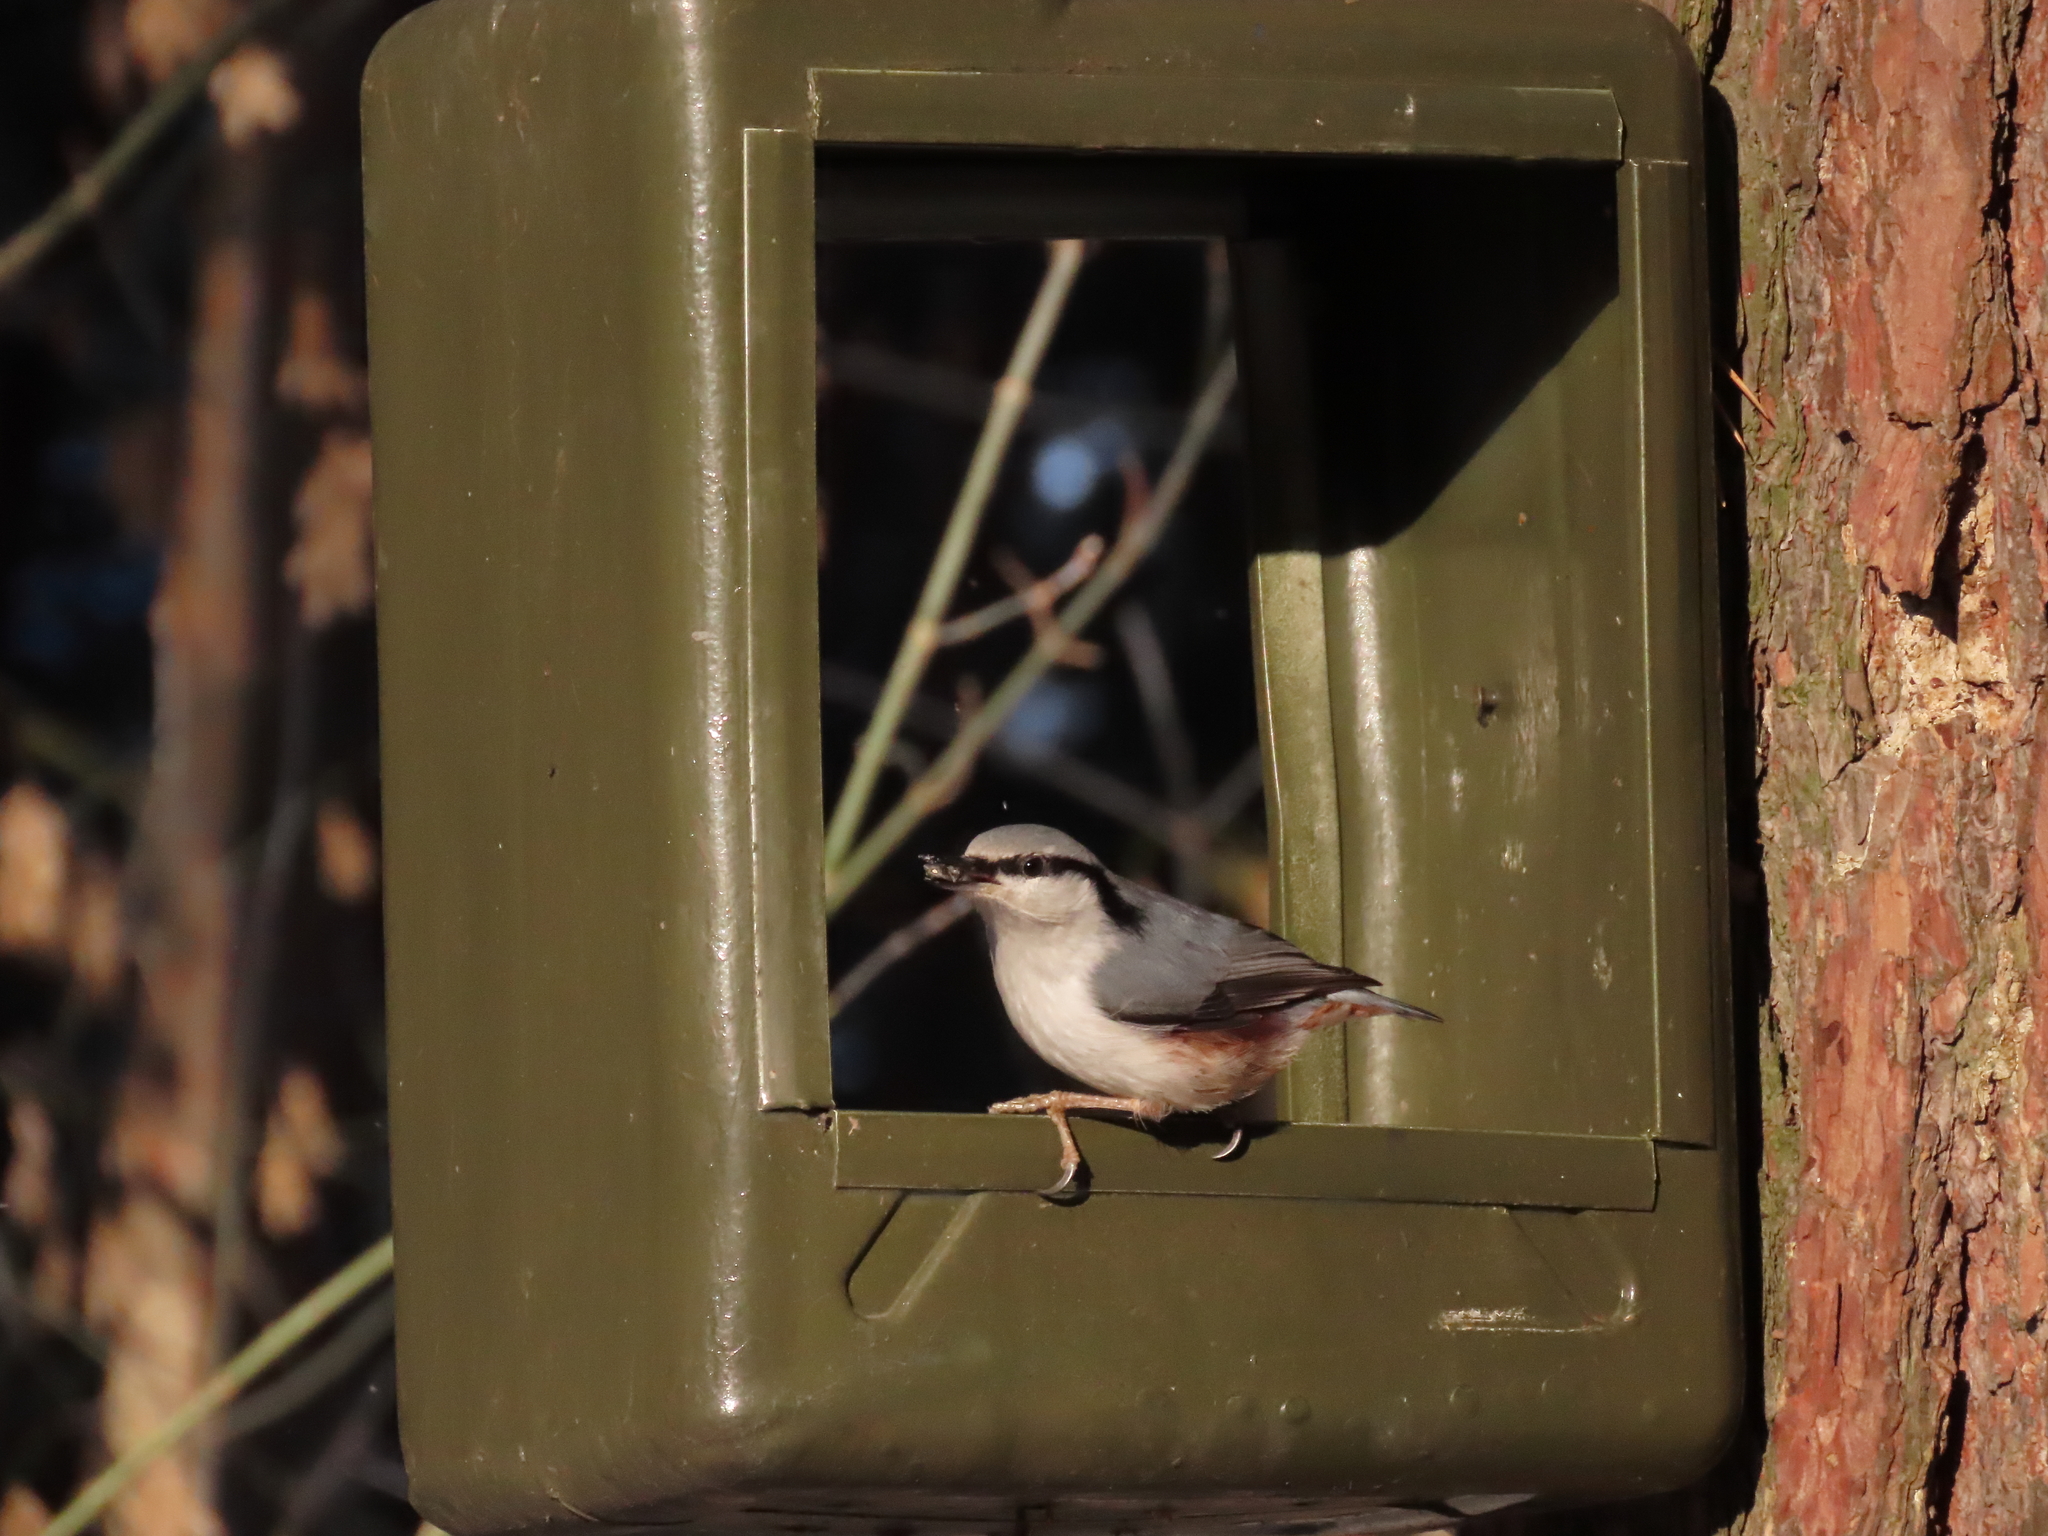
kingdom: Animalia
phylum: Chordata
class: Aves
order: Passeriformes
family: Sittidae
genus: Sitta
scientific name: Sitta europaea
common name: Eurasian nuthatch
